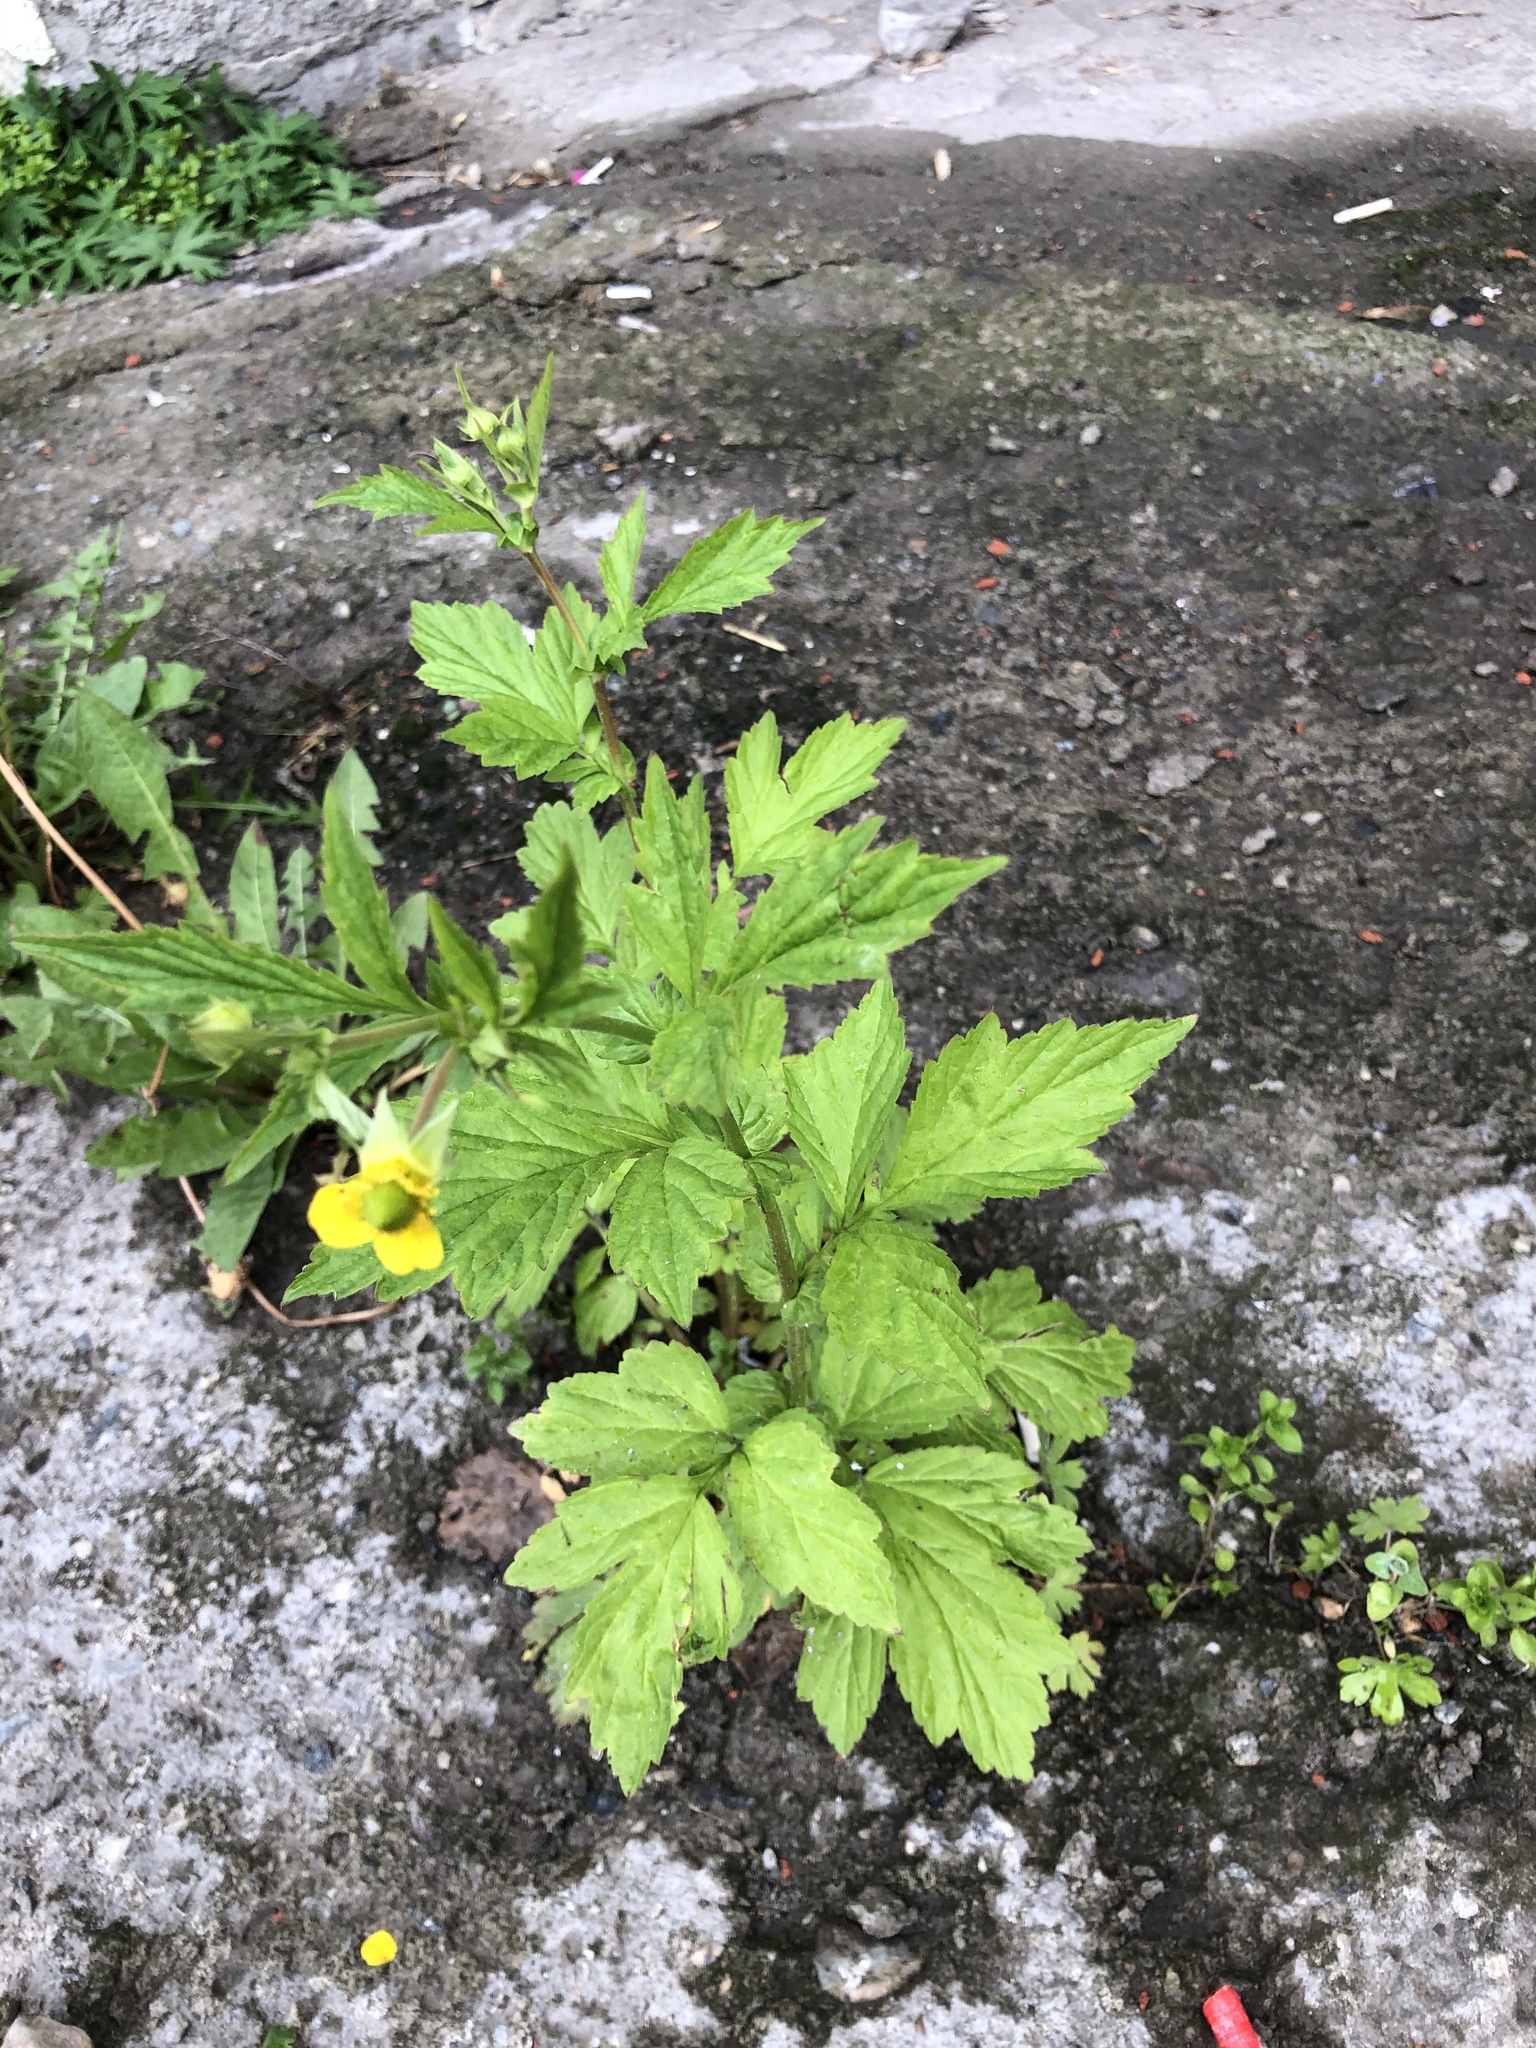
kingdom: Plantae
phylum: Tracheophyta
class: Magnoliopsida
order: Rosales
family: Rosaceae
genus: Geum
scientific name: Geum aleppicum
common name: Yellow avens
